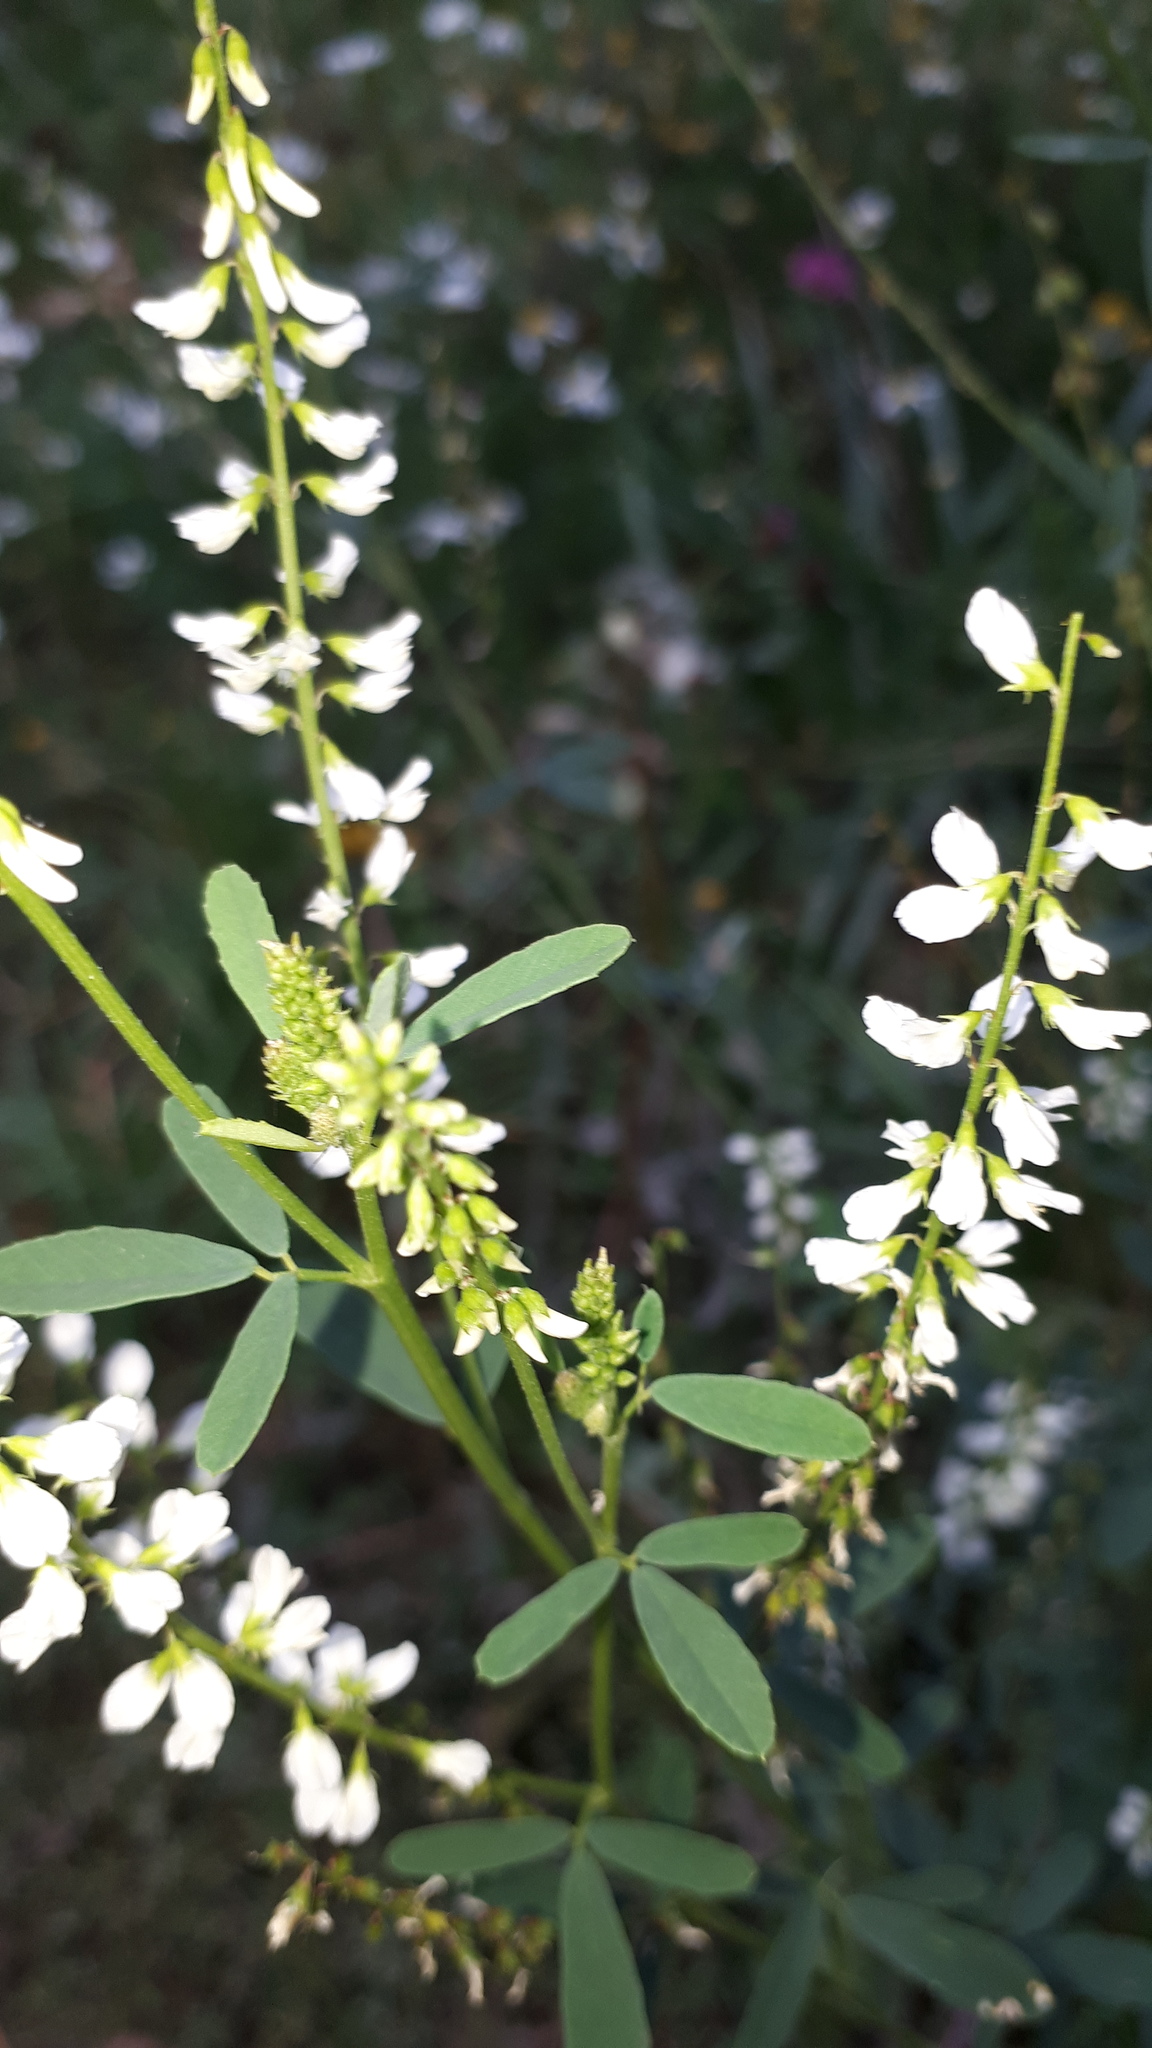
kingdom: Plantae
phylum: Tracheophyta
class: Magnoliopsida
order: Fabales
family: Fabaceae
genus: Melilotus
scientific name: Melilotus albus
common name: White melilot
